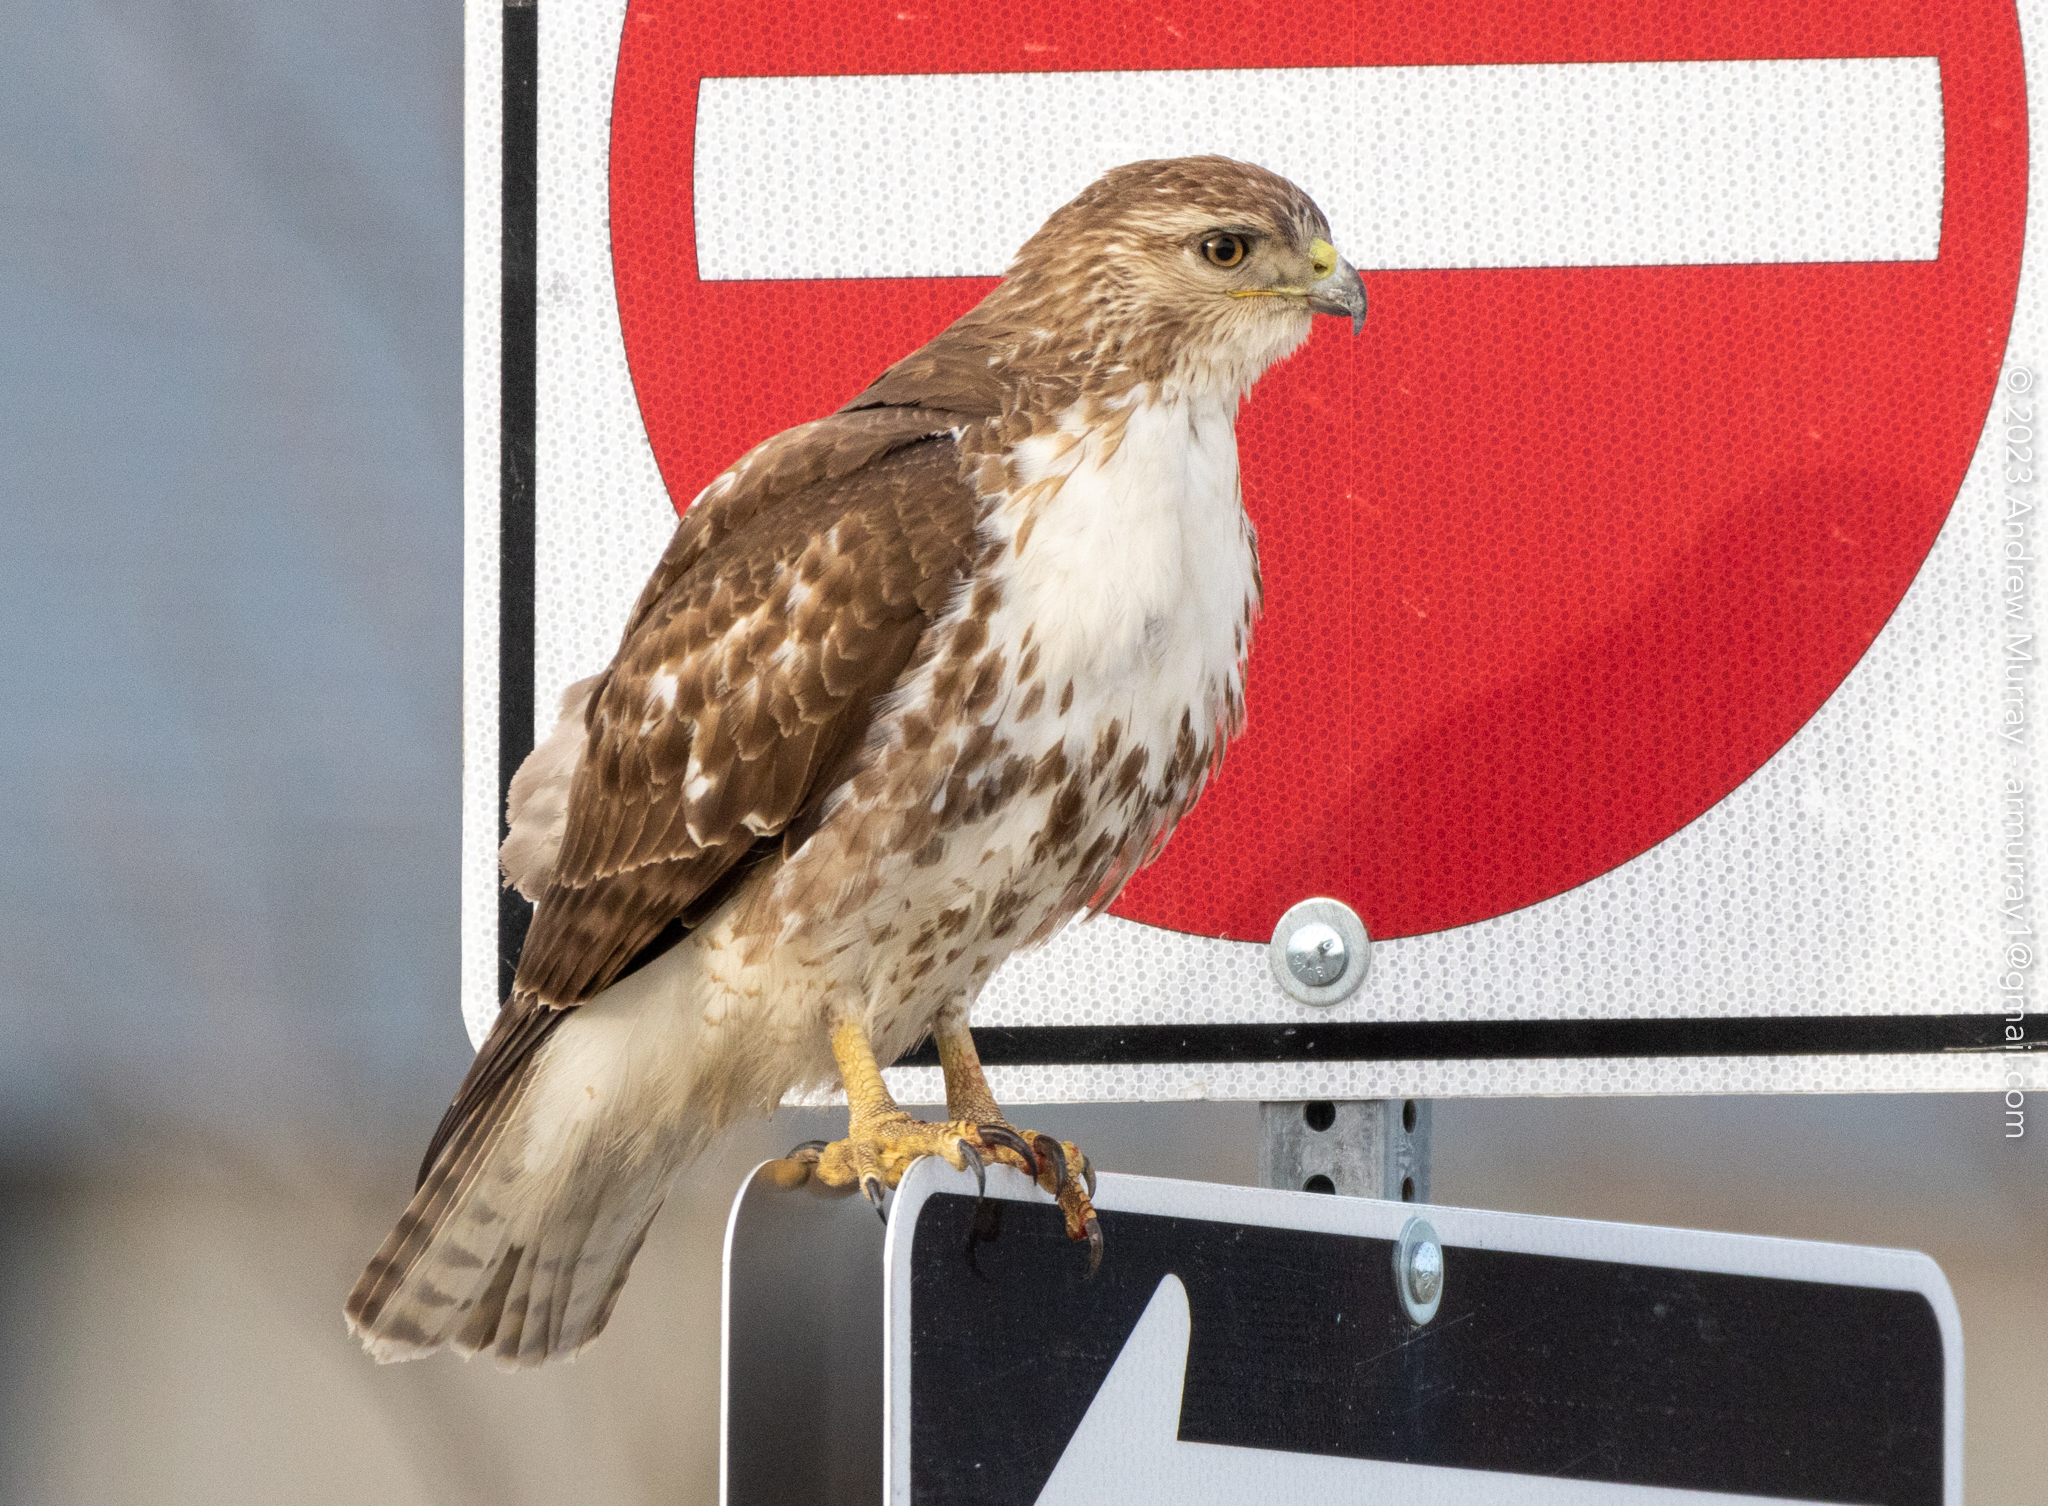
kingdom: Animalia
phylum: Chordata
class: Aves
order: Accipitriformes
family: Accipitridae
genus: Buteo
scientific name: Buteo jamaicensis
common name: Red-tailed hawk
